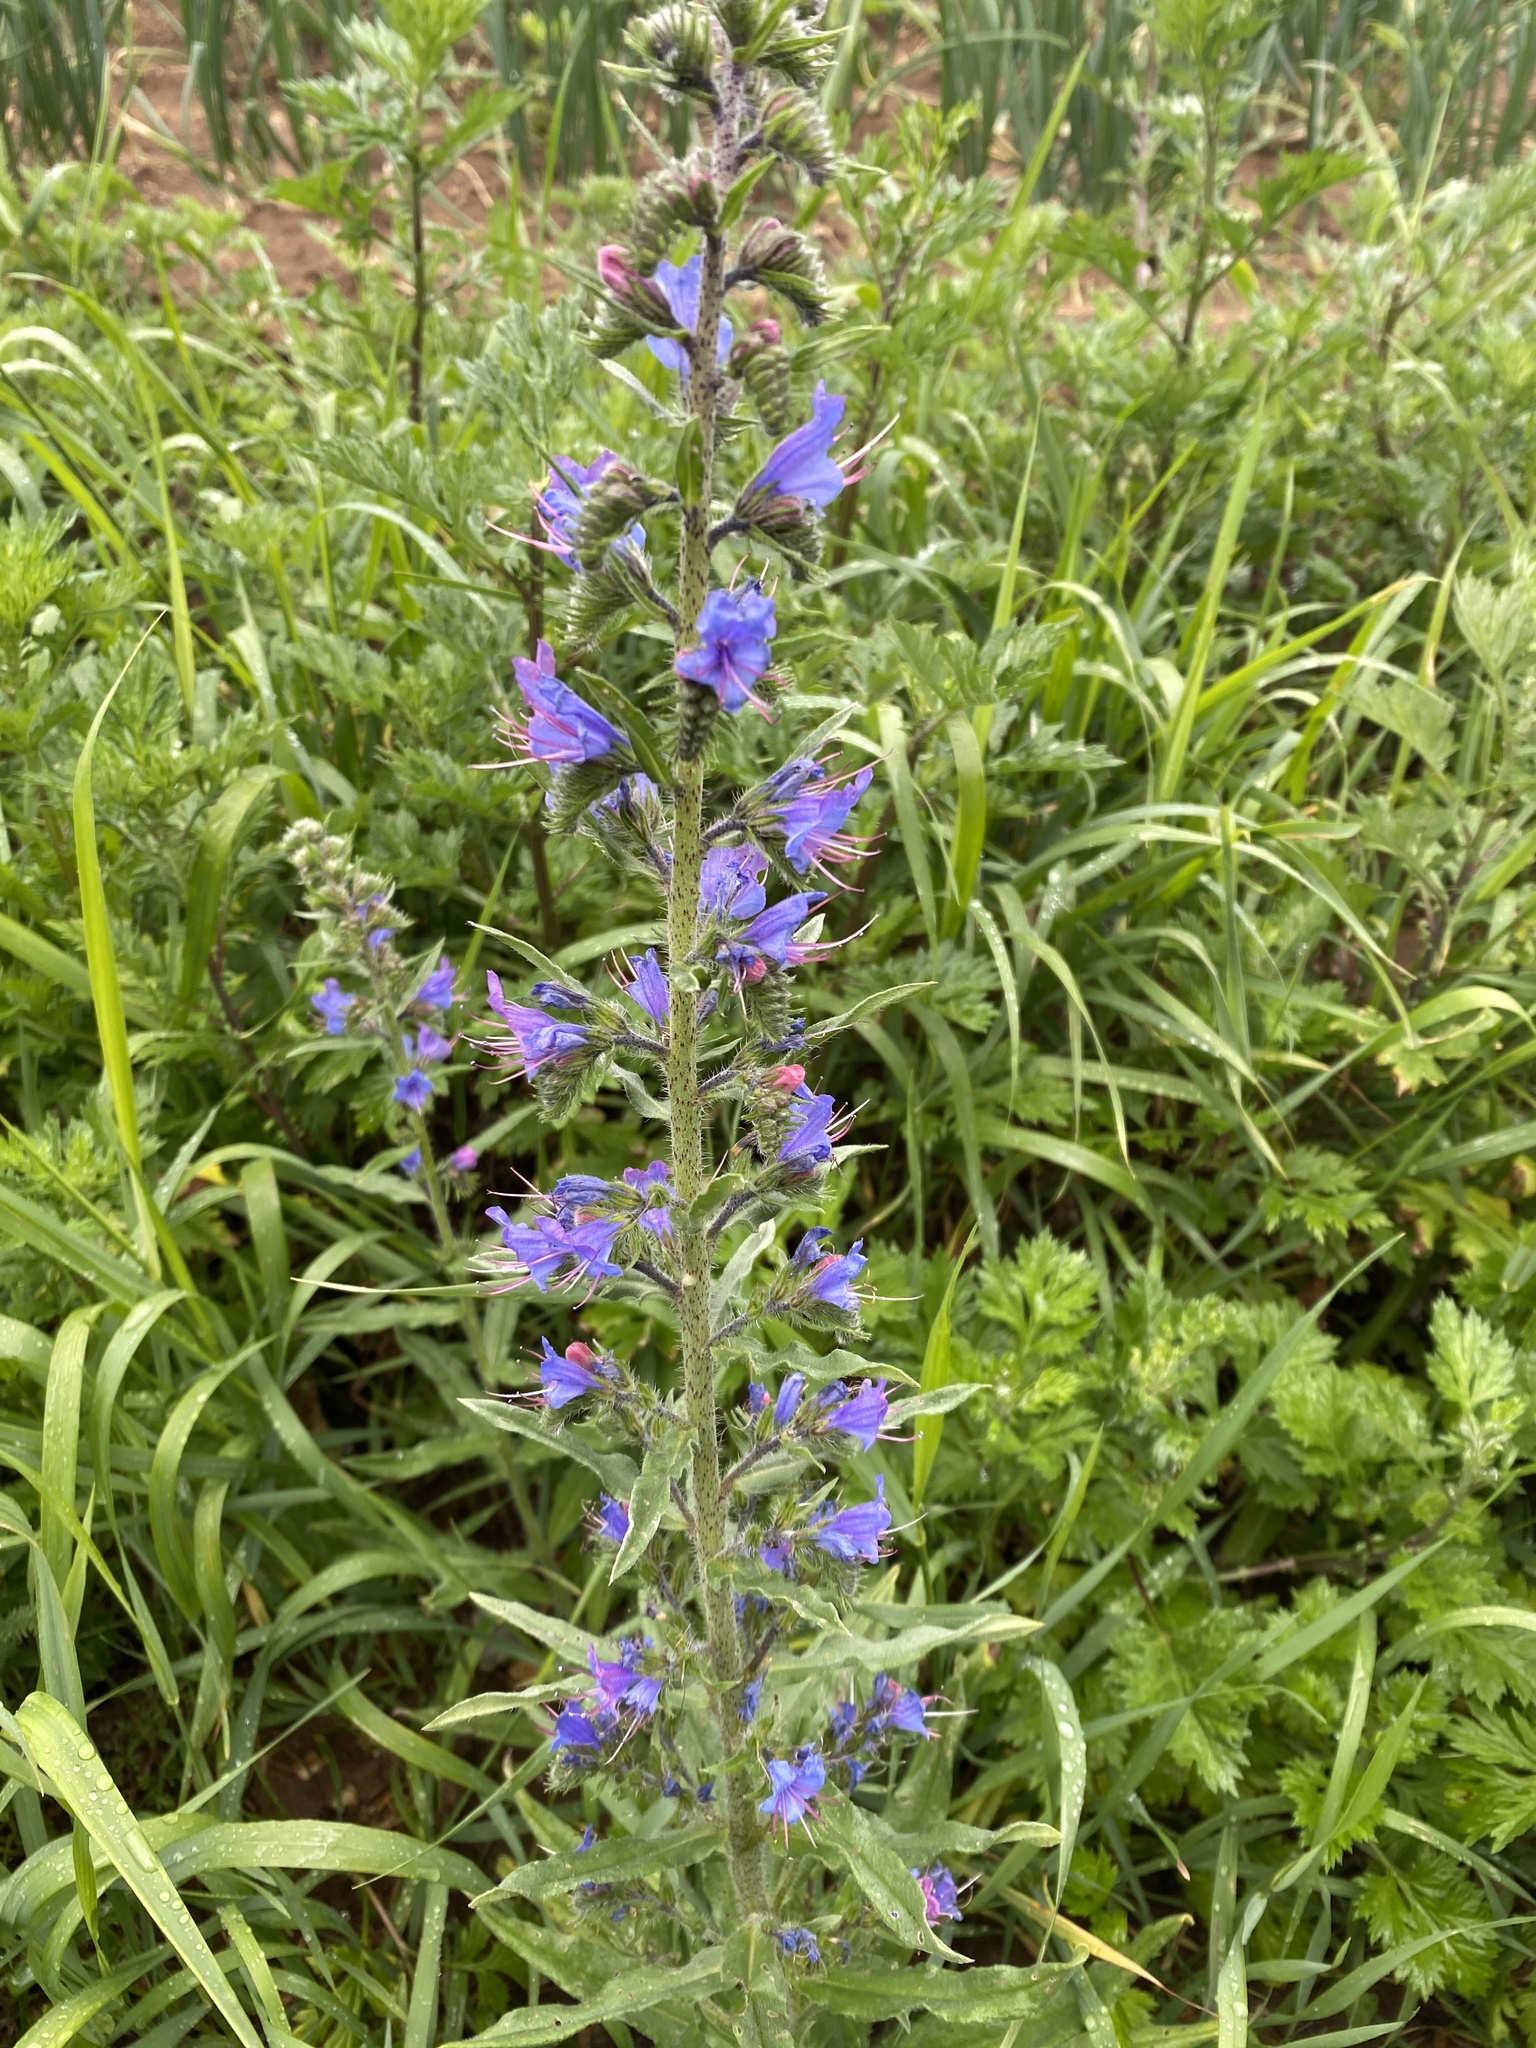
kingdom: Plantae
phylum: Tracheophyta
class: Magnoliopsida
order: Boraginales
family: Boraginaceae
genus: Echium
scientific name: Echium vulgare
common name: Common viper's bugloss
